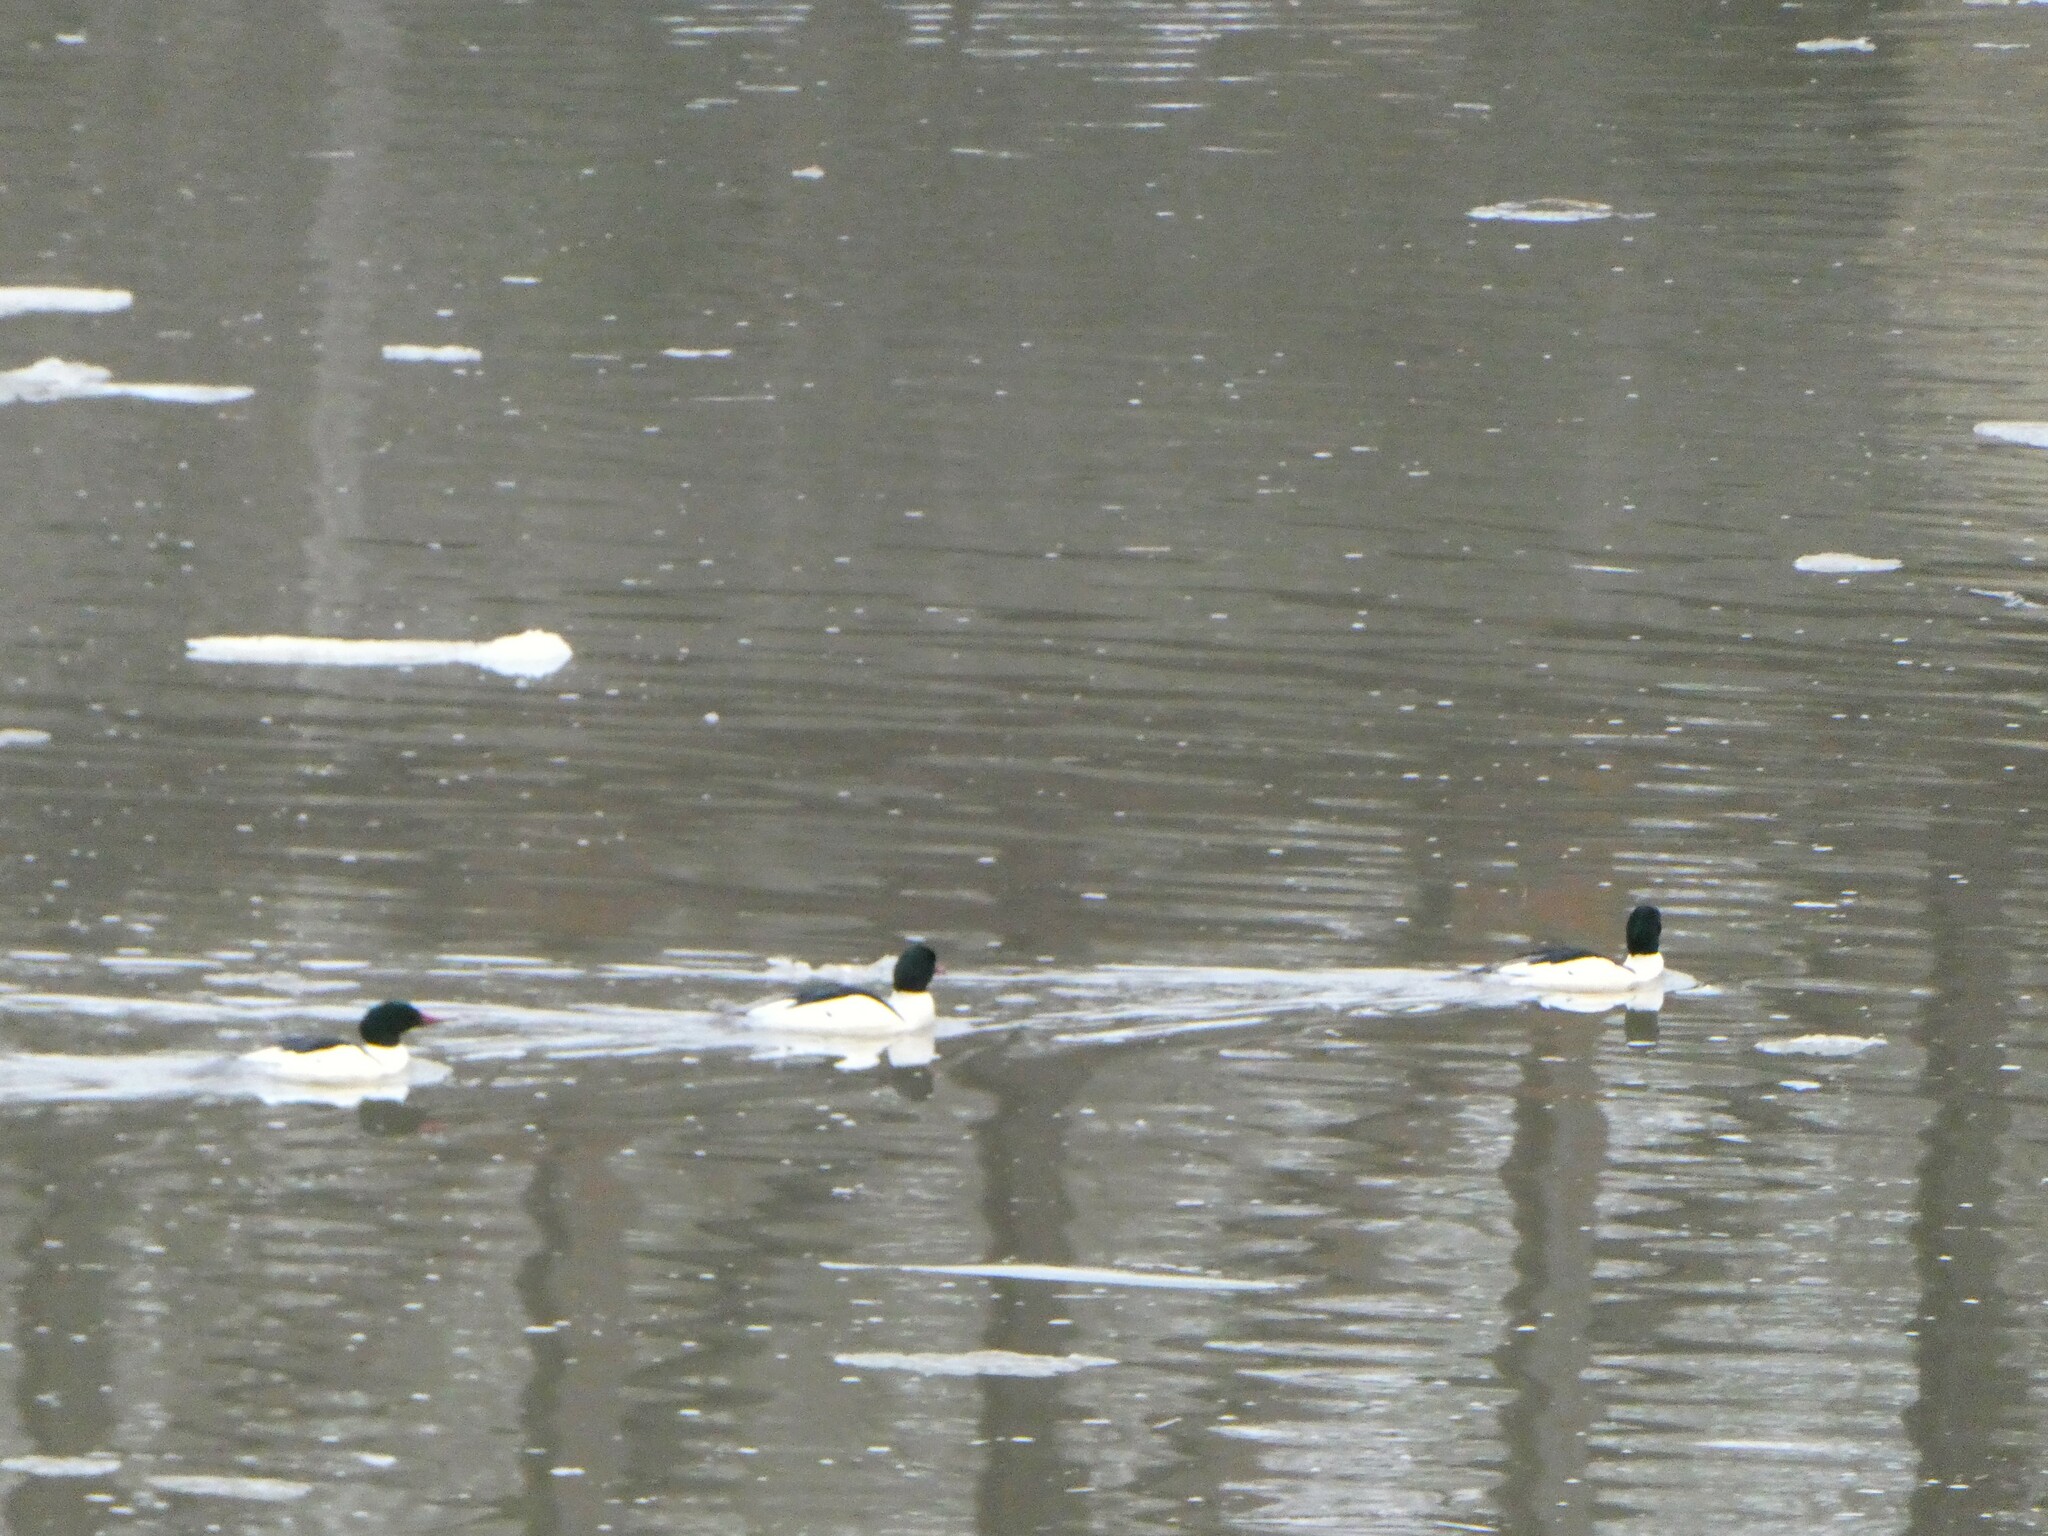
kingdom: Animalia
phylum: Chordata
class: Aves
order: Anseriformes
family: Anatidae
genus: Mergus
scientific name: Mergus merganser
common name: Common merganser
